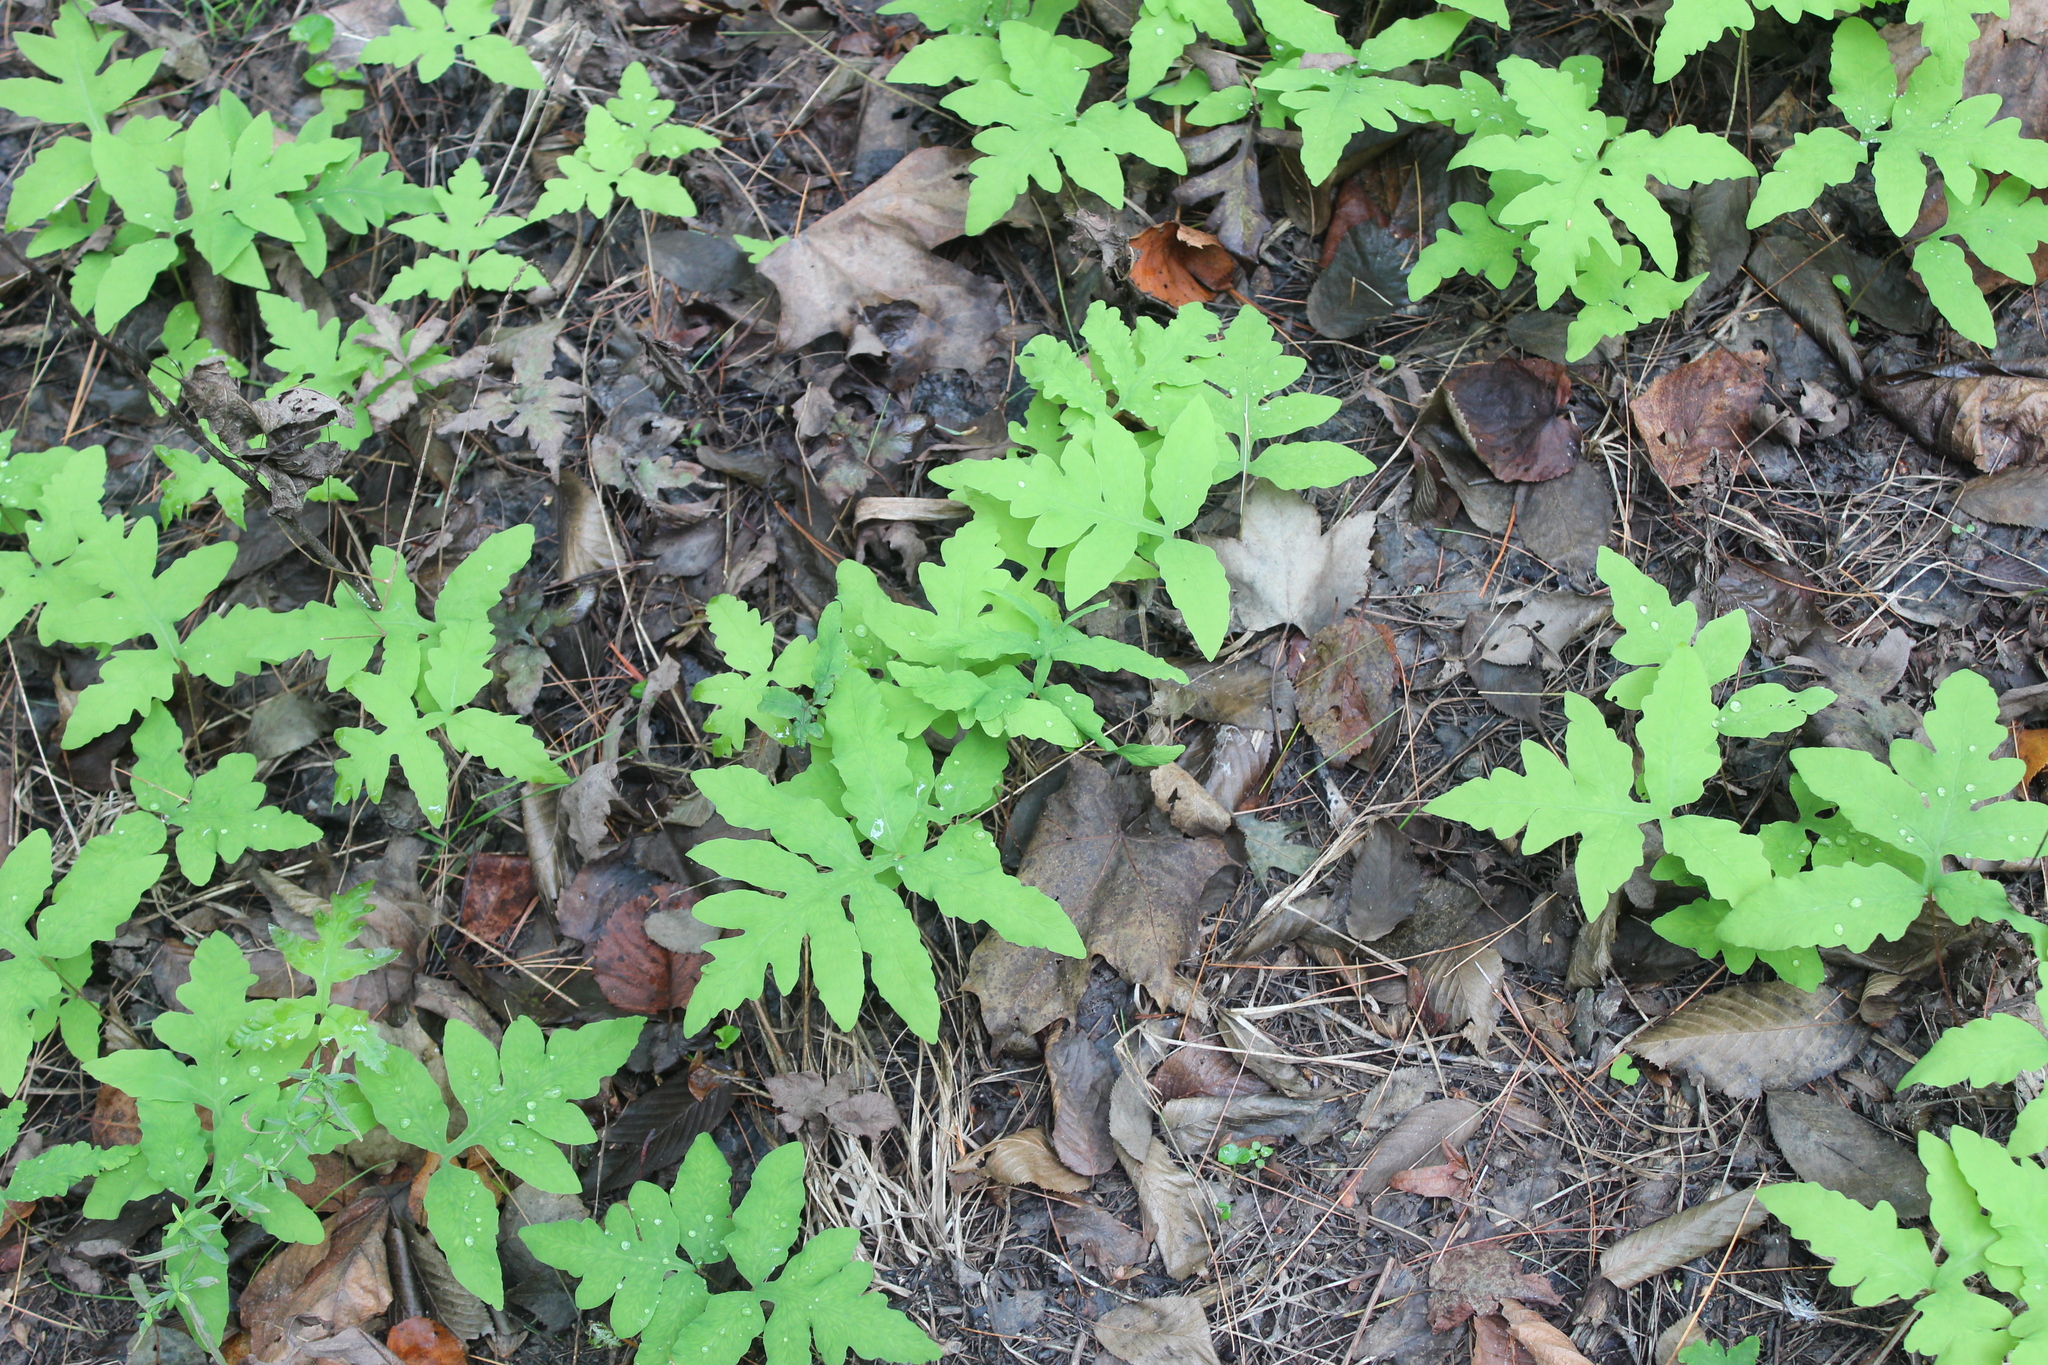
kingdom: Plantae
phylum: Tracheophyta
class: Polypodiopsida
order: Polypodiales
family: Onocleaceae
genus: Onoclea
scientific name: Onoclea sensibilis
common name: Sensitive fern
